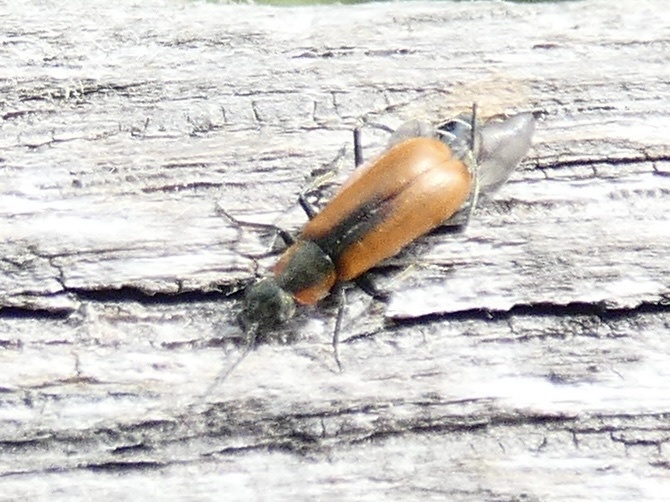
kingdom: Animalia
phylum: Arthropoda
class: Insecta
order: Coleoptera
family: Melyridae
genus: Anthocomus
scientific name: Anthocomus rufus
